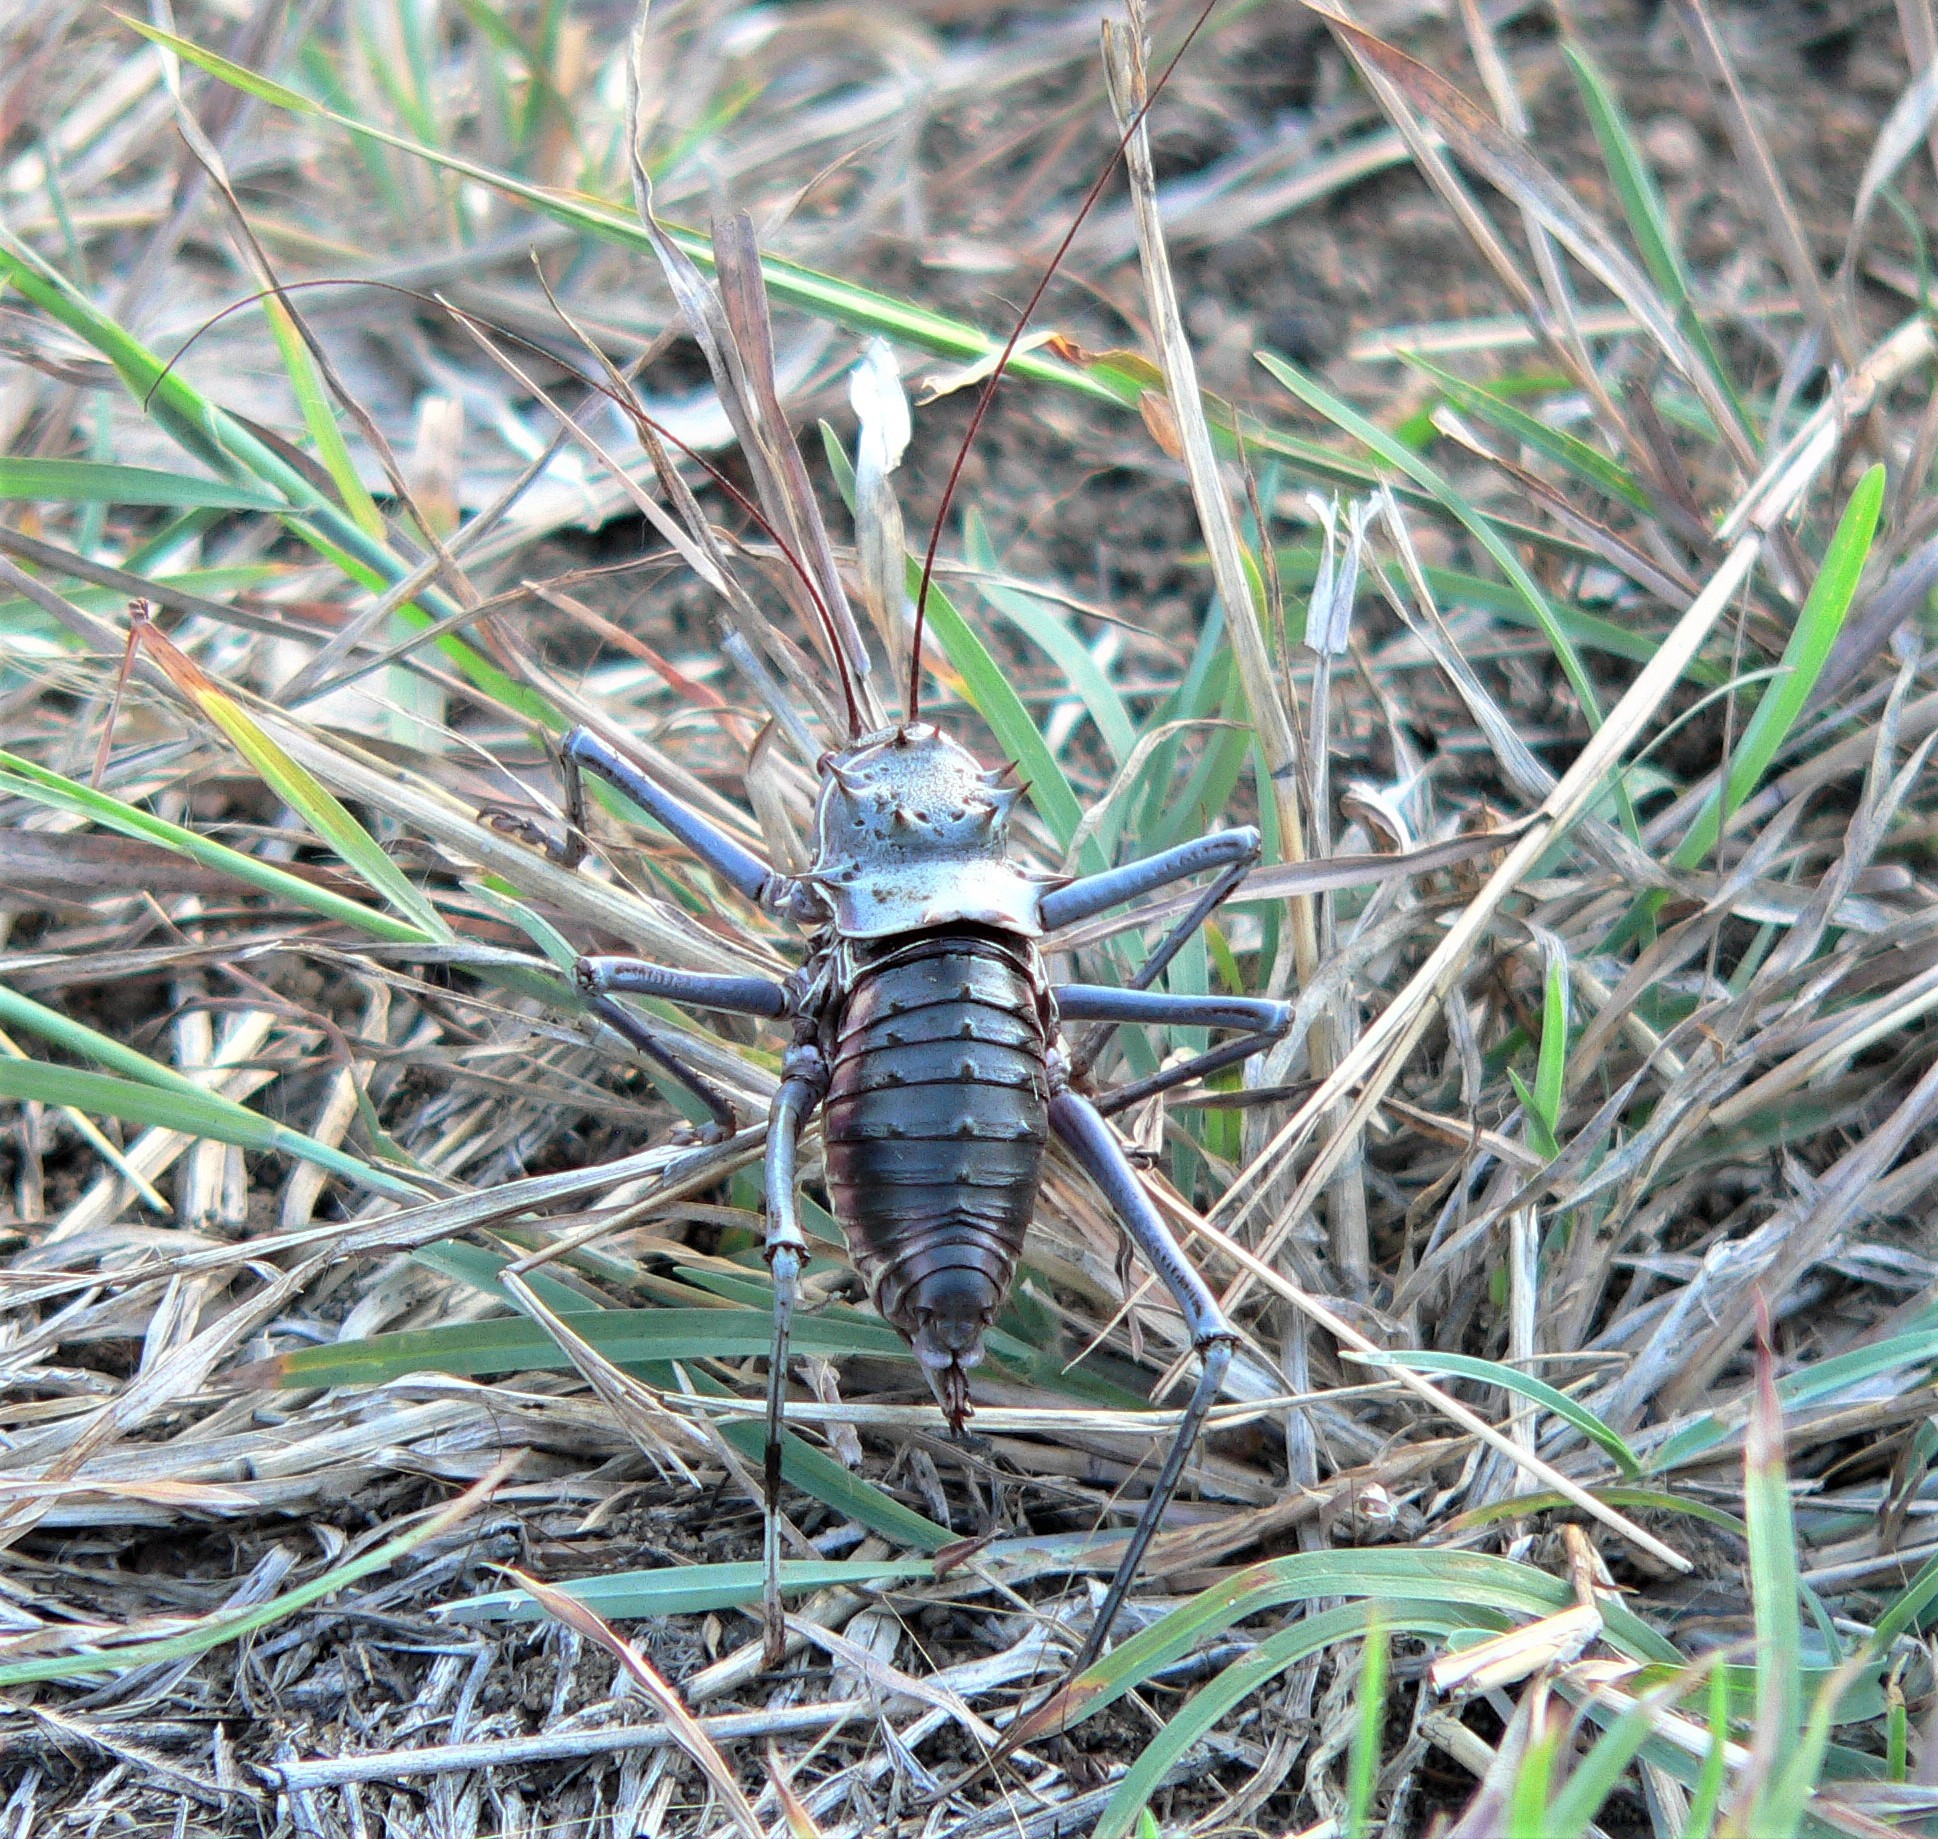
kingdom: Animalia
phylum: Arthropoda
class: Insecta
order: Orthoptera
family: Tettigoniidae
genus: Acanthoplus
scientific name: Acanthoplus discoidalis
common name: Armoured katydid
